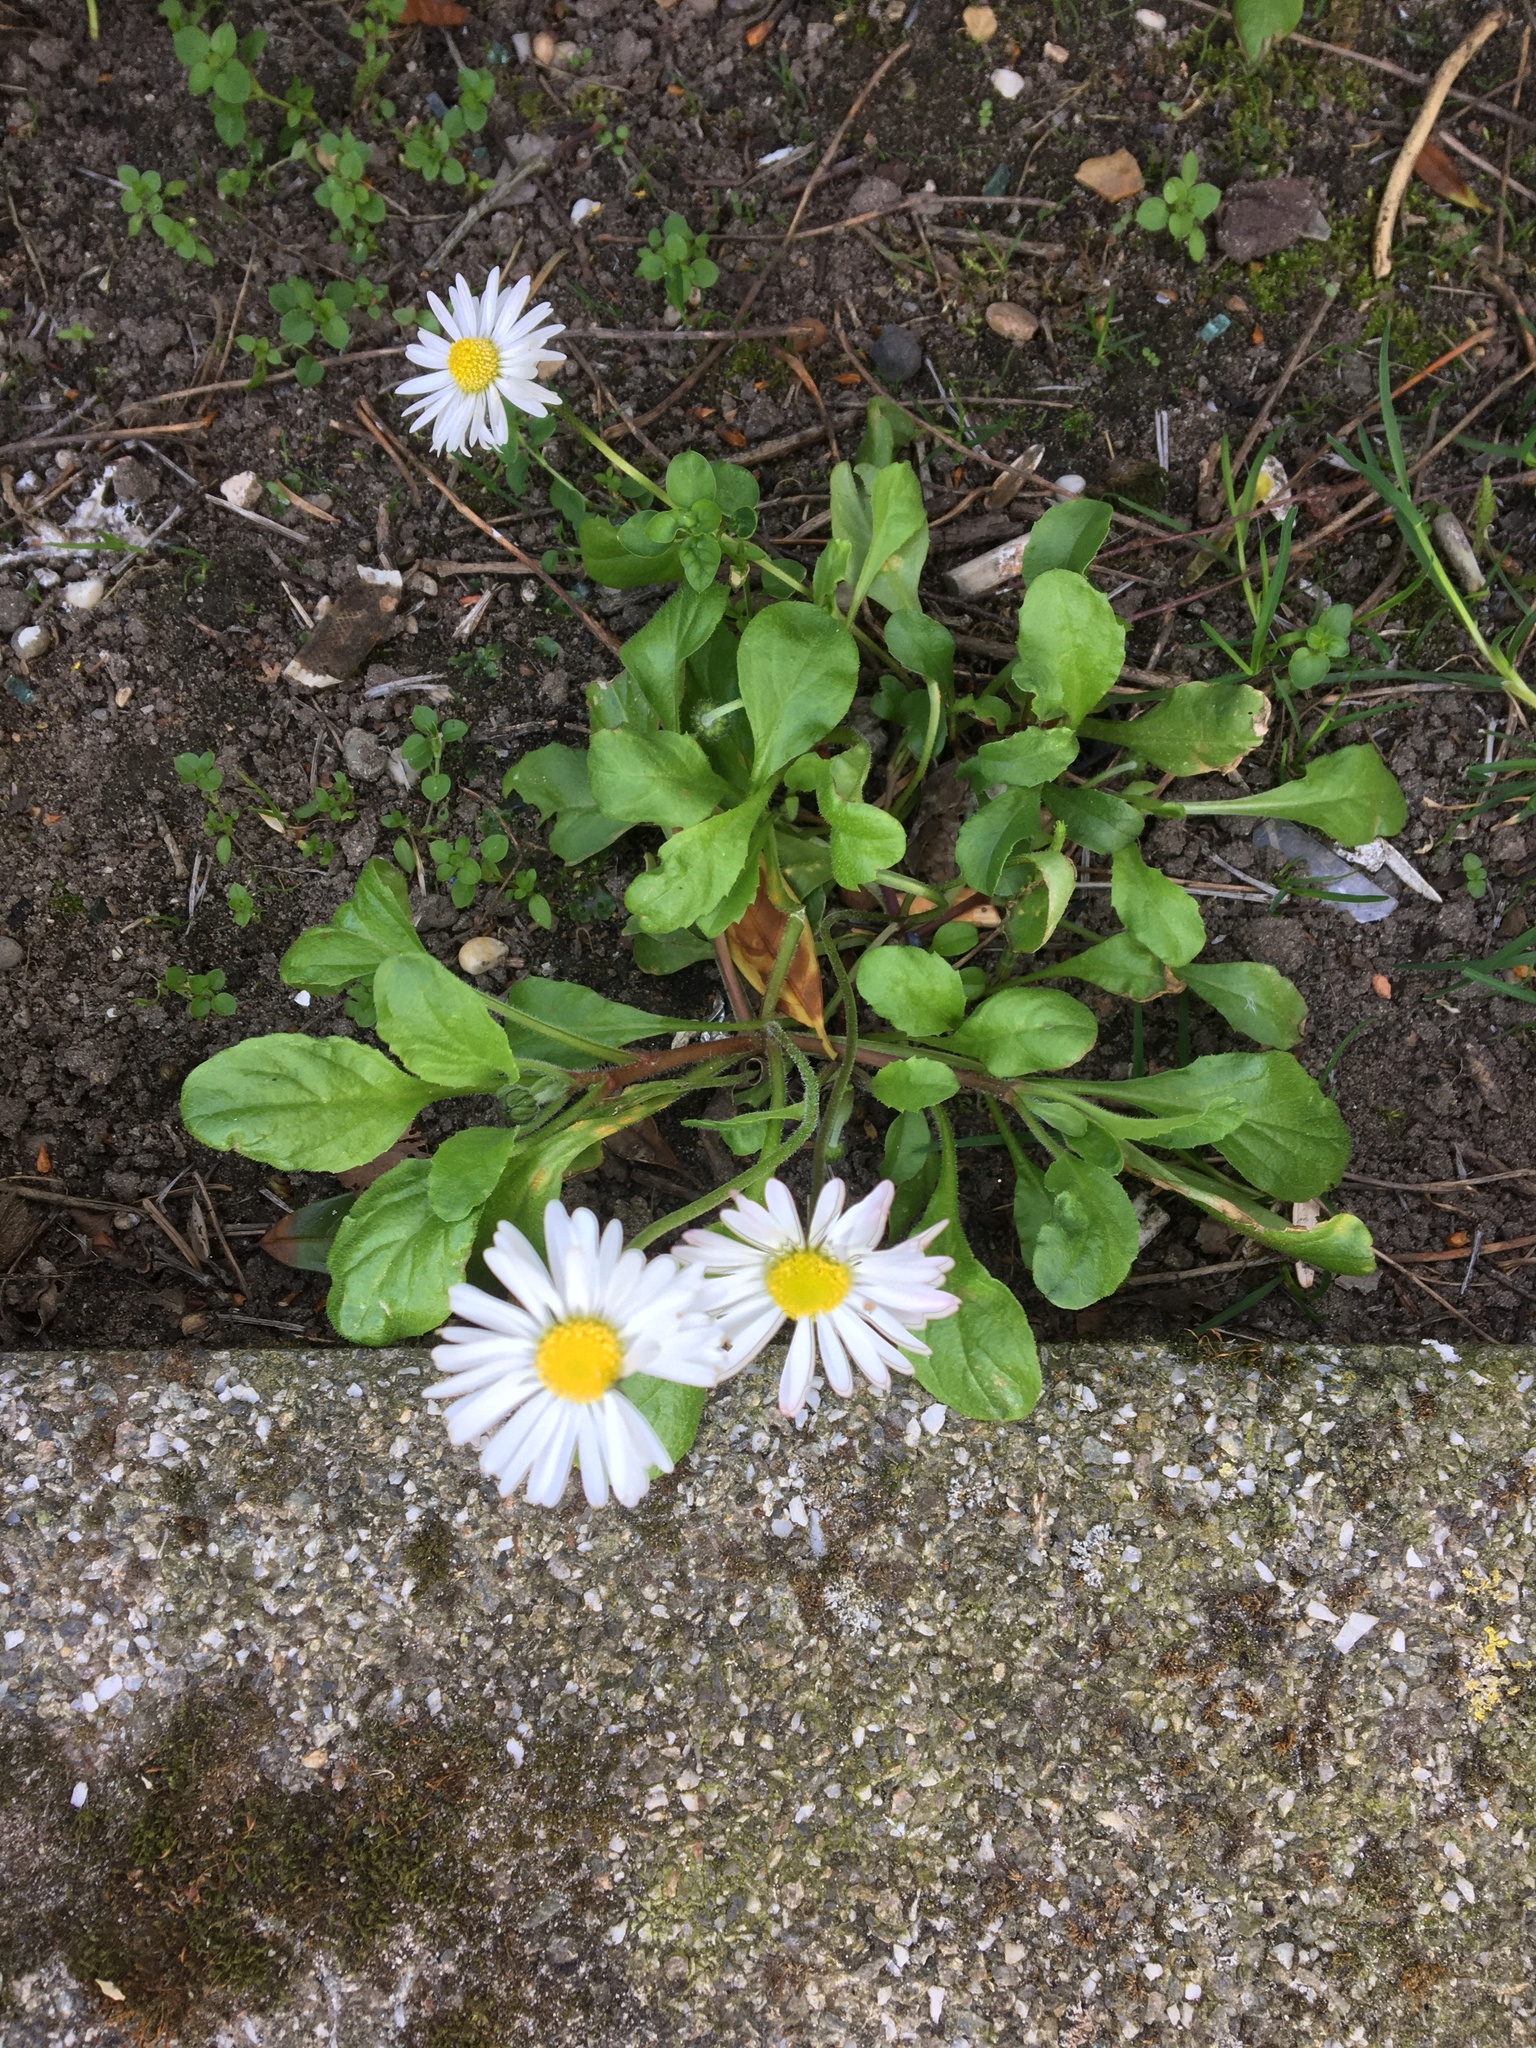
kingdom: Plantae
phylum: Tracheophyta
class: Magnoliopsida
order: Asterales
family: Asteraceae
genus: Bellis
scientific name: Bellis perennis
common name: Lawndaisy
